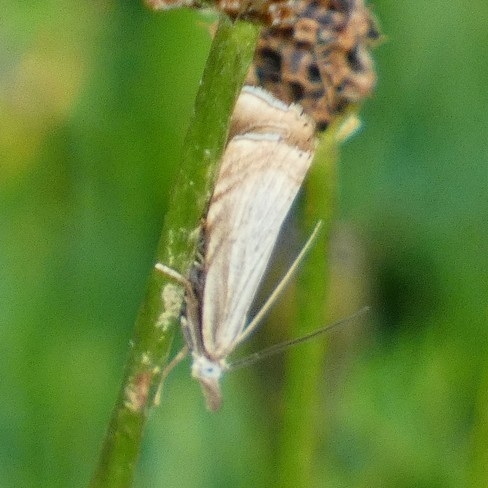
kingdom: Animalia
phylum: Arthropoda
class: Insecta
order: Lepidoptera
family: Crambidae
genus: Chrysoteuchia
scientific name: Chrysoteuchia culmella
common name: Garden grass-veneer
